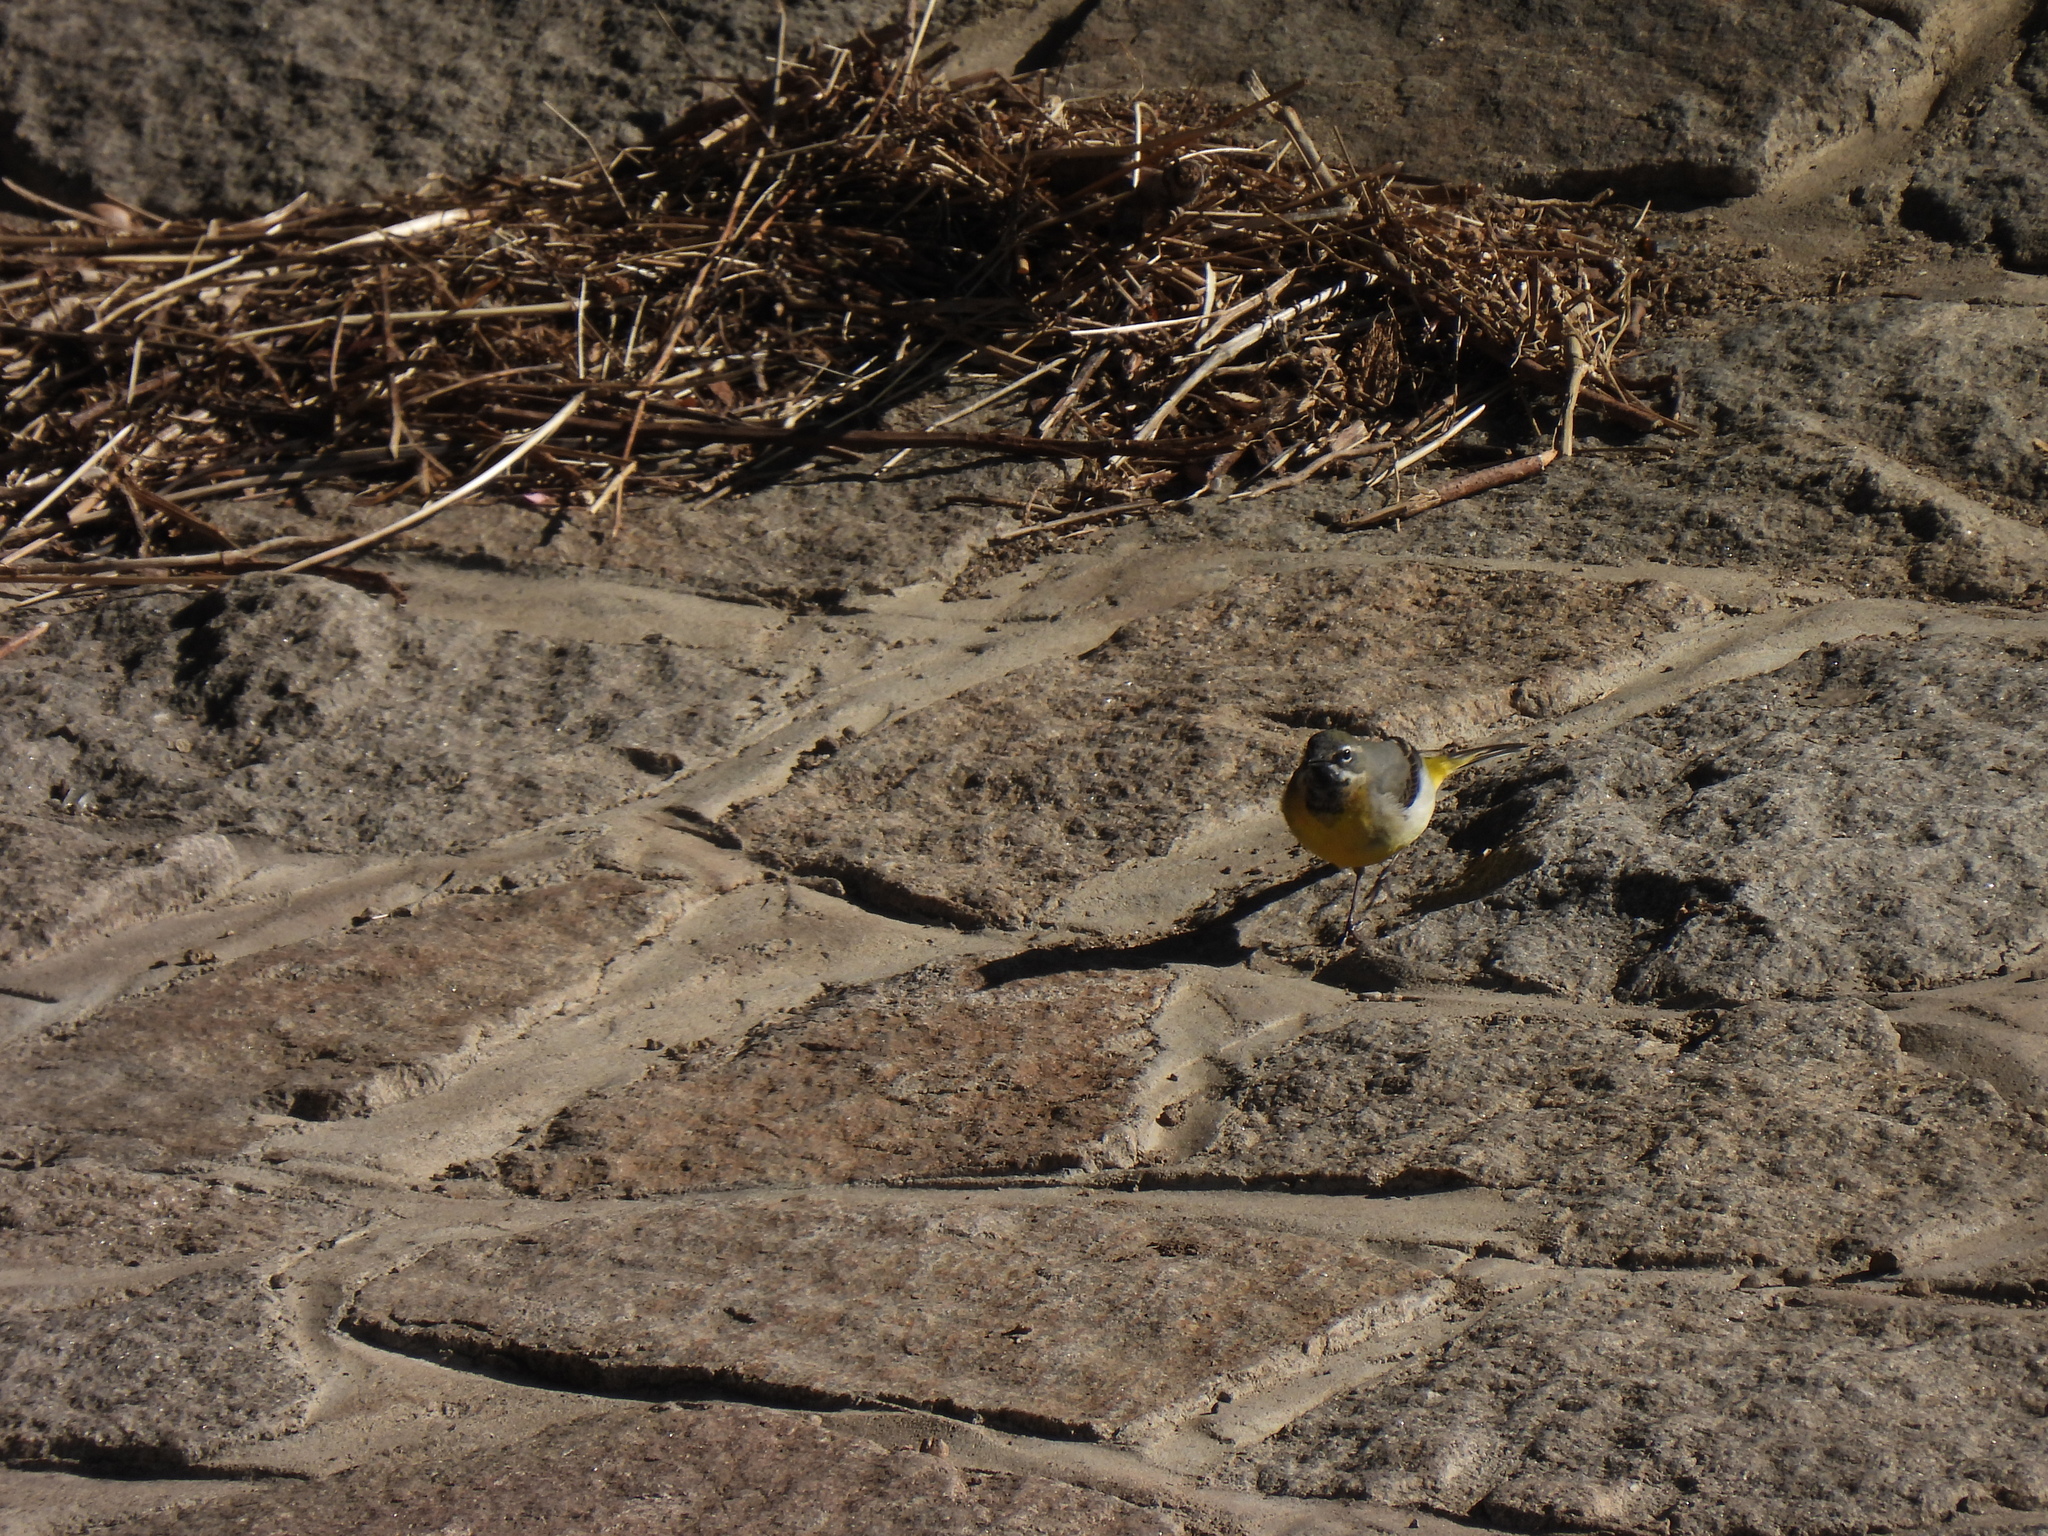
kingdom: Animalia
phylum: Chordata
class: Aves
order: Passeriformes
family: Motacillidae
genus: Motacilla
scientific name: Motacilla cinerea
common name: Grey wagtail
